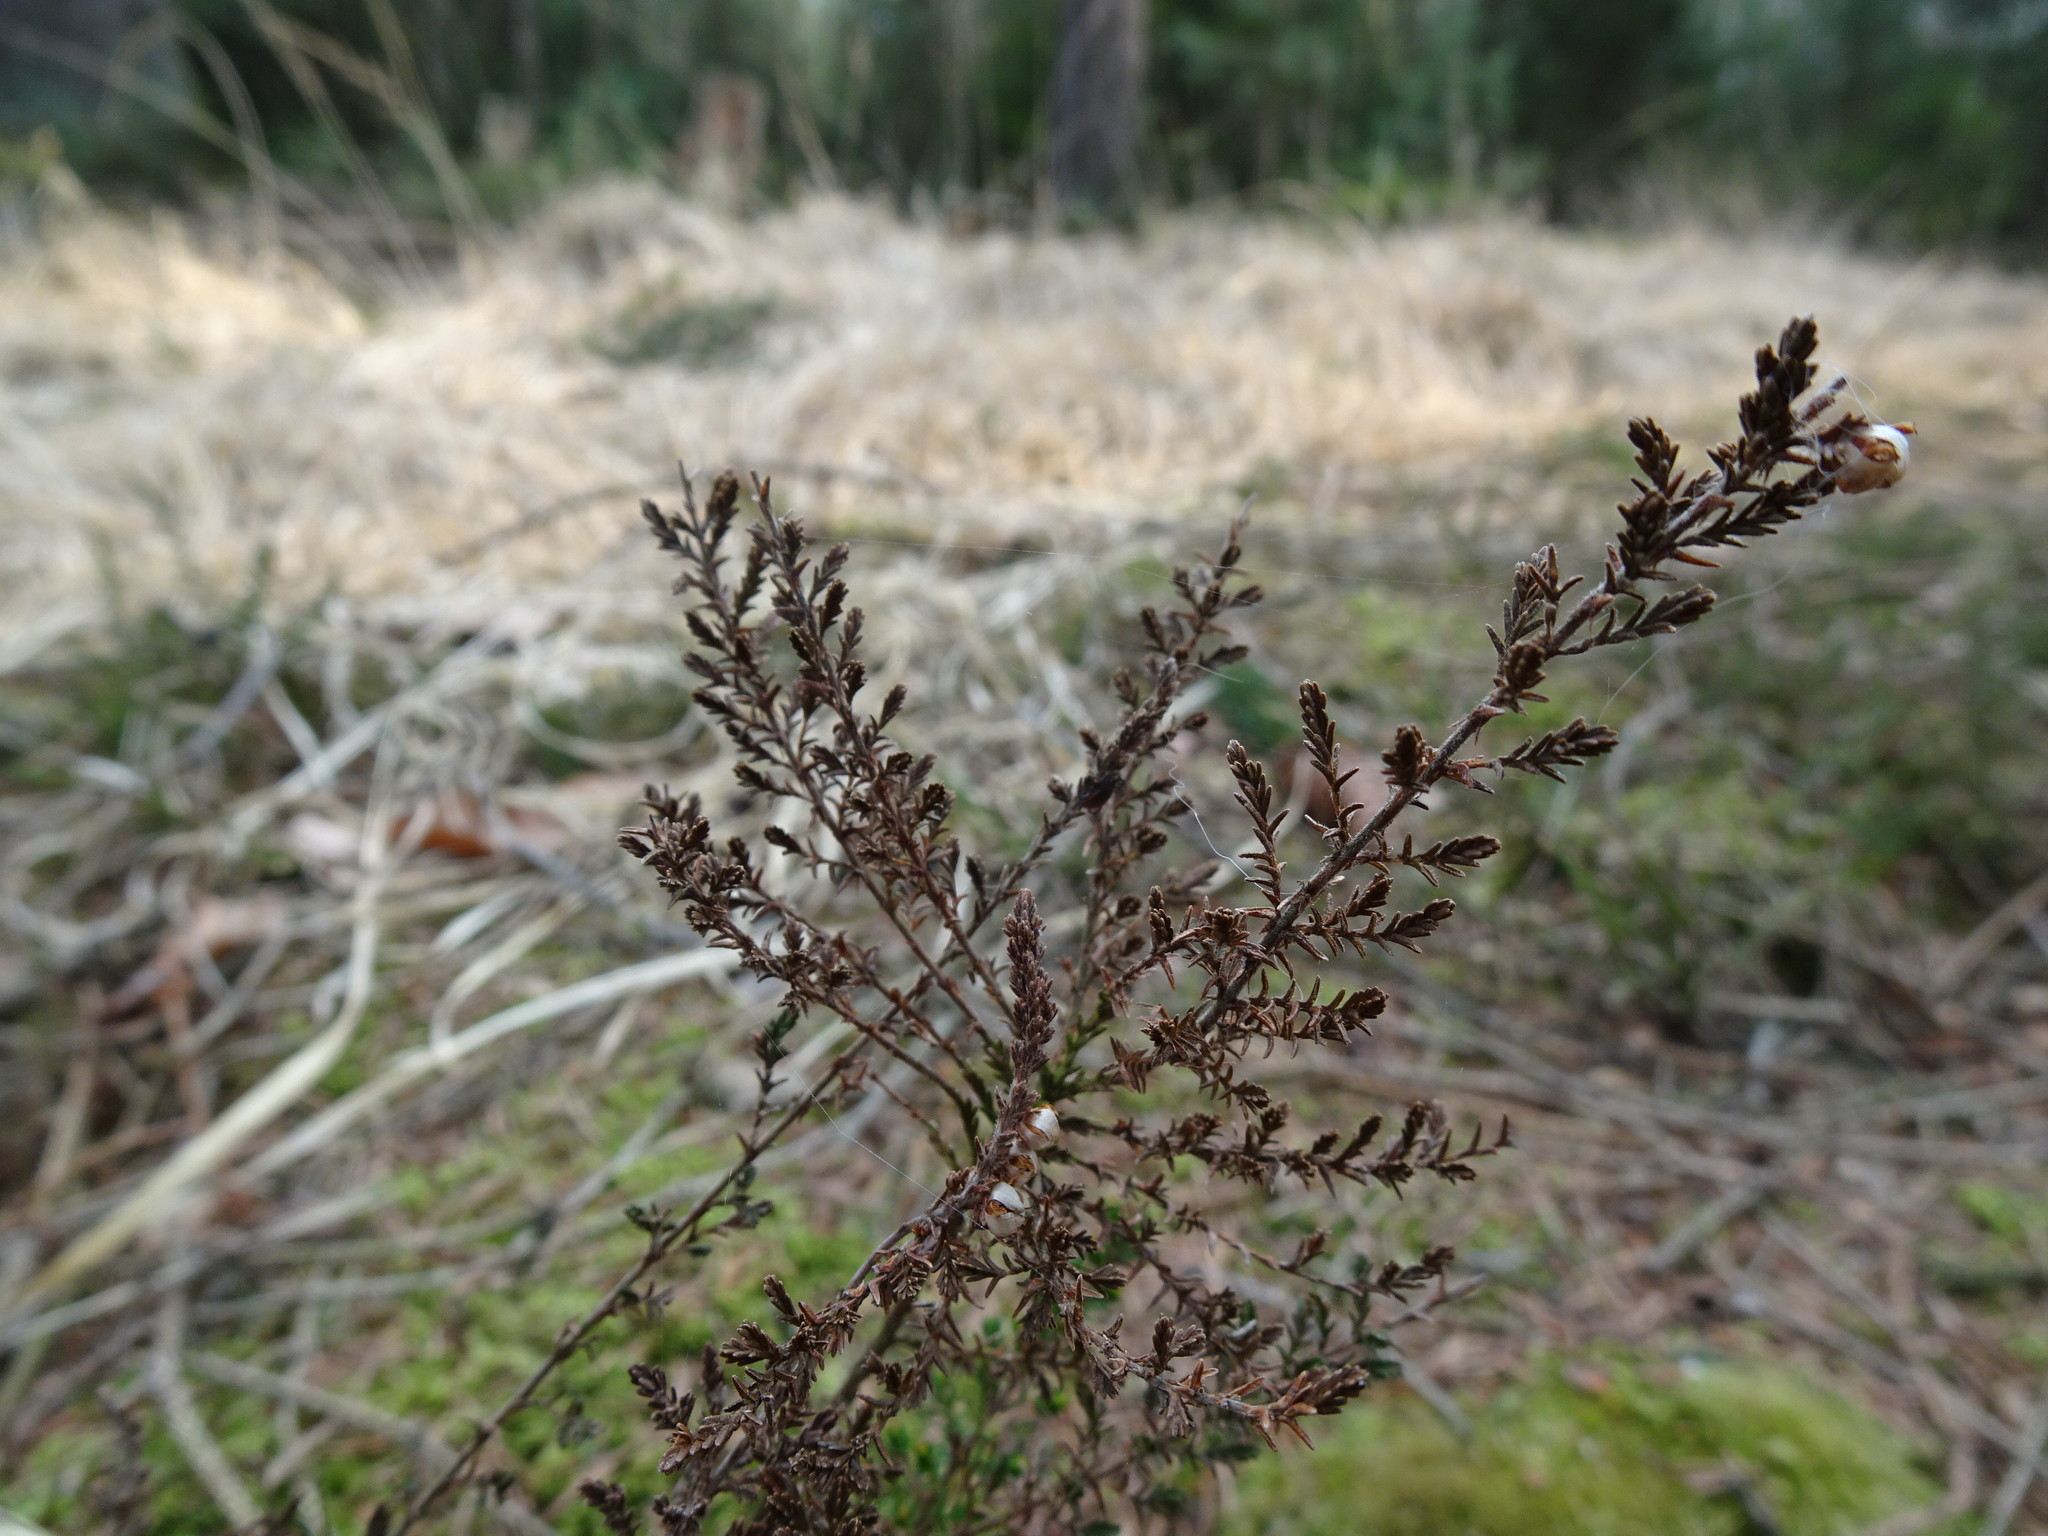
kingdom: Plantae
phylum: Tracheophyta
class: Magnoliopsida
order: Ericales
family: Ericaceae
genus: Calluna
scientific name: Calluna vulgaris
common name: Heather
